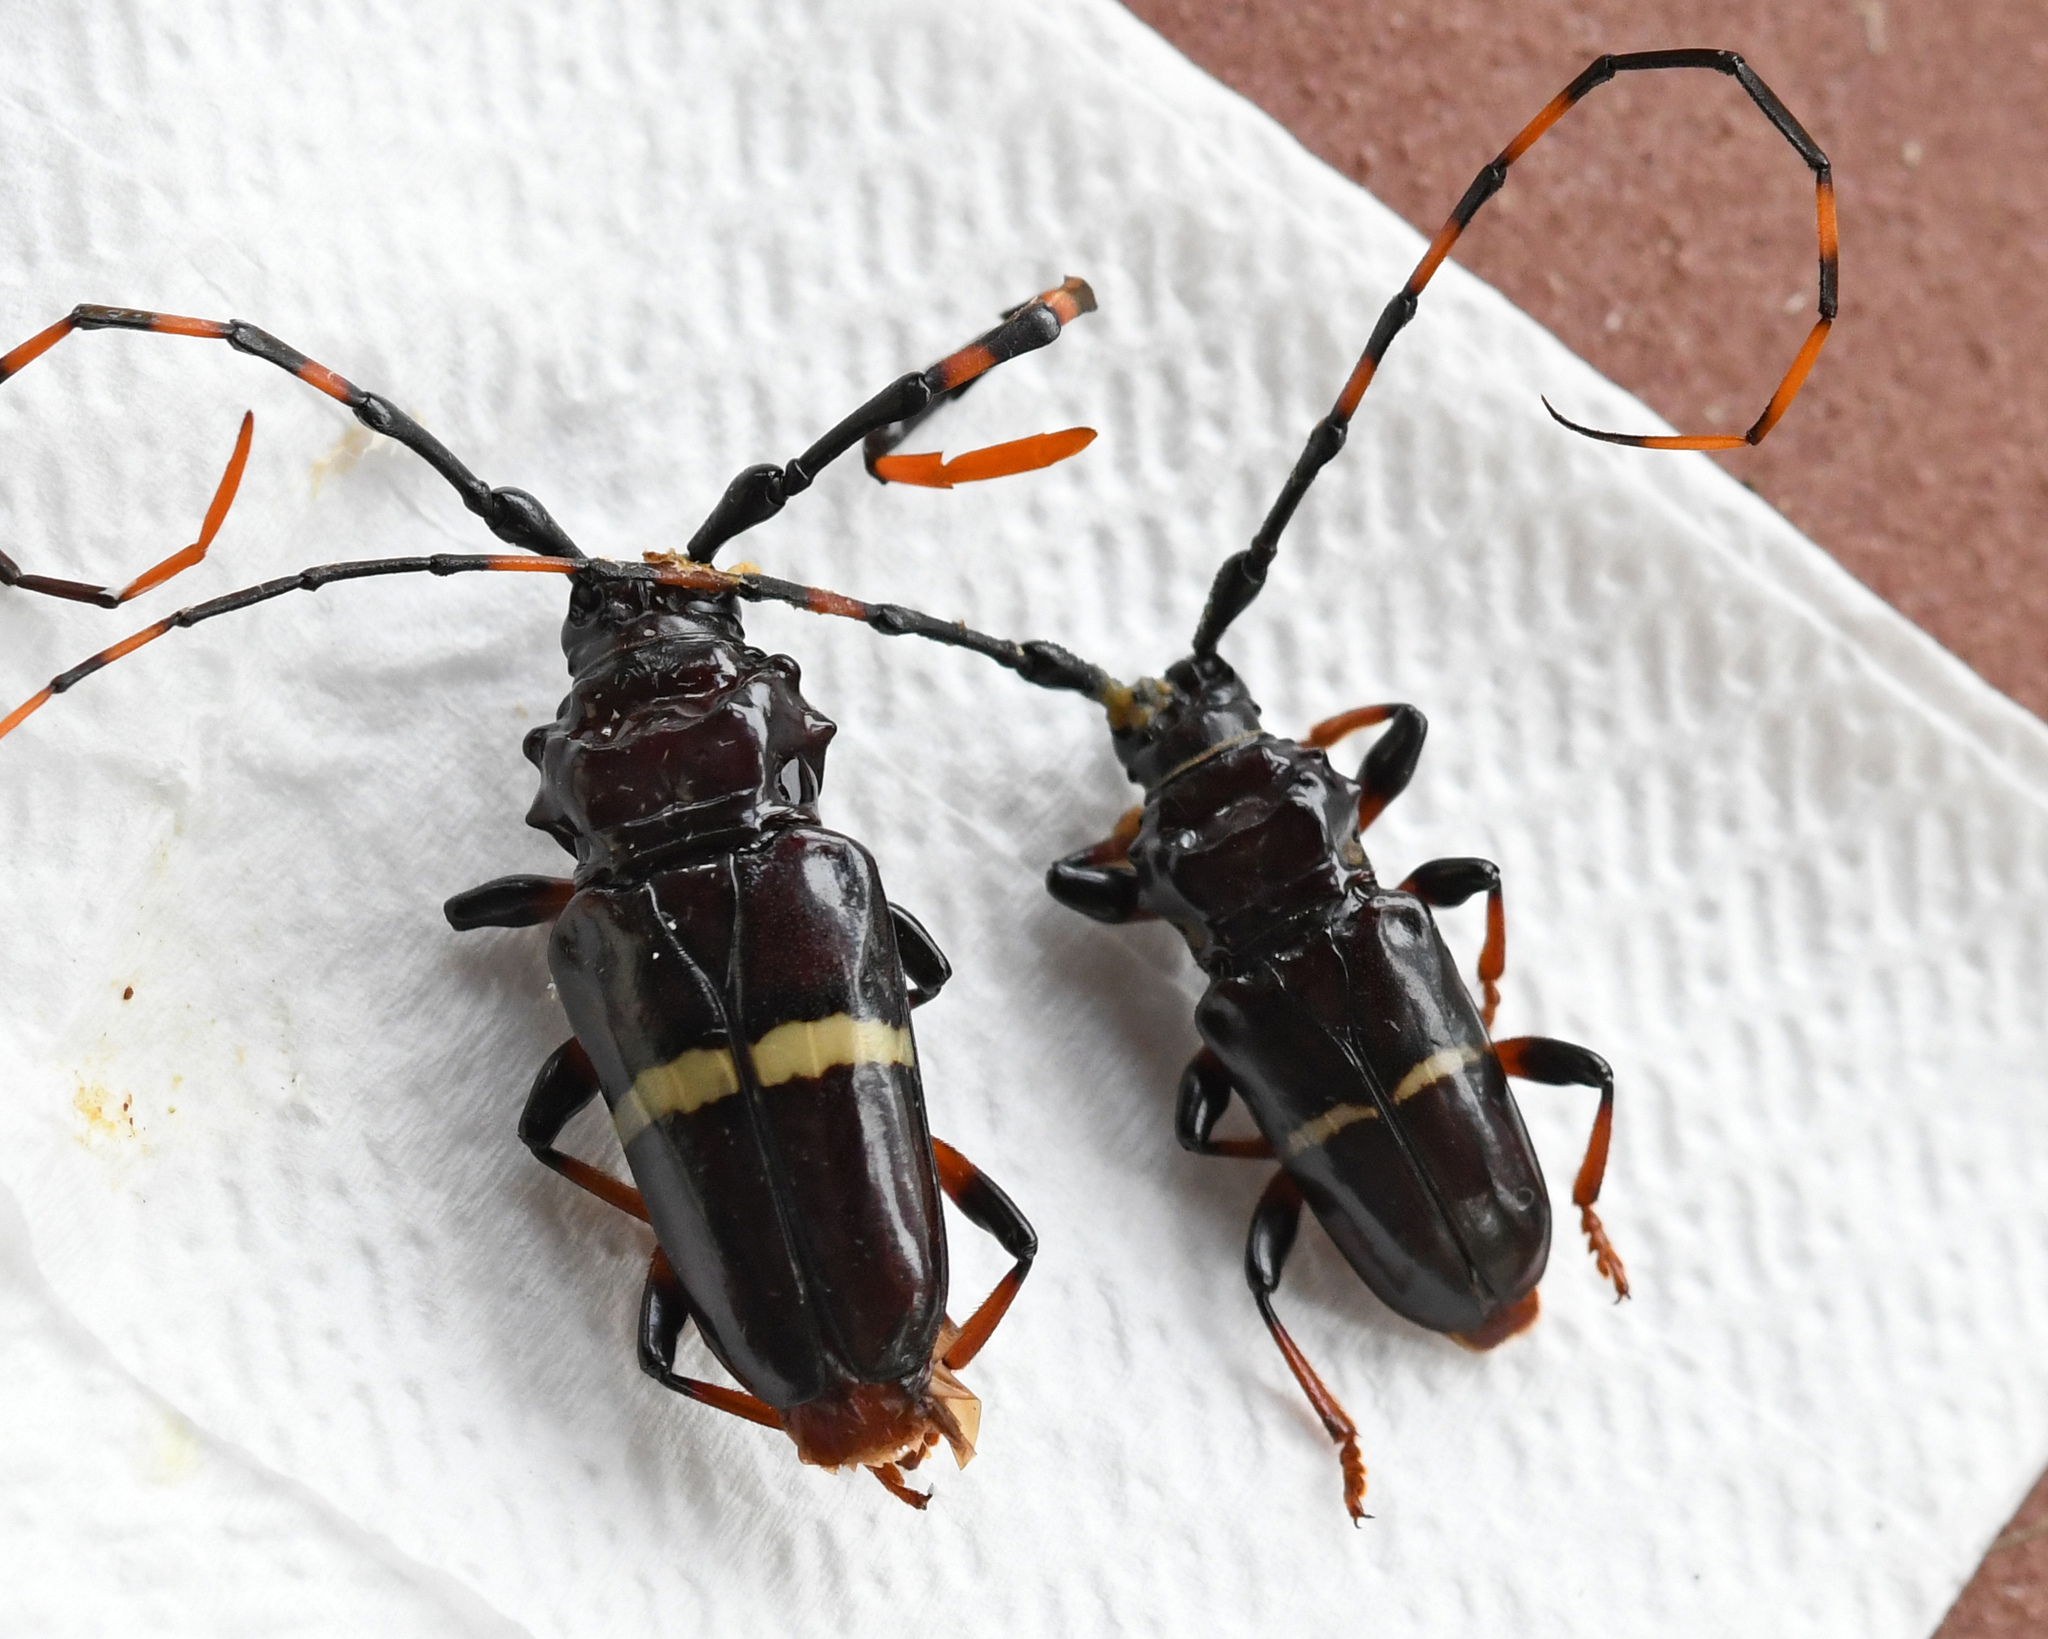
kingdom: Animalia
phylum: Arthropoda
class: Insecta
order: Coleoptera
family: Cerambycidae
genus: Trachyderes
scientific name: Trachyderes succinctus
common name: Mango longhorn
